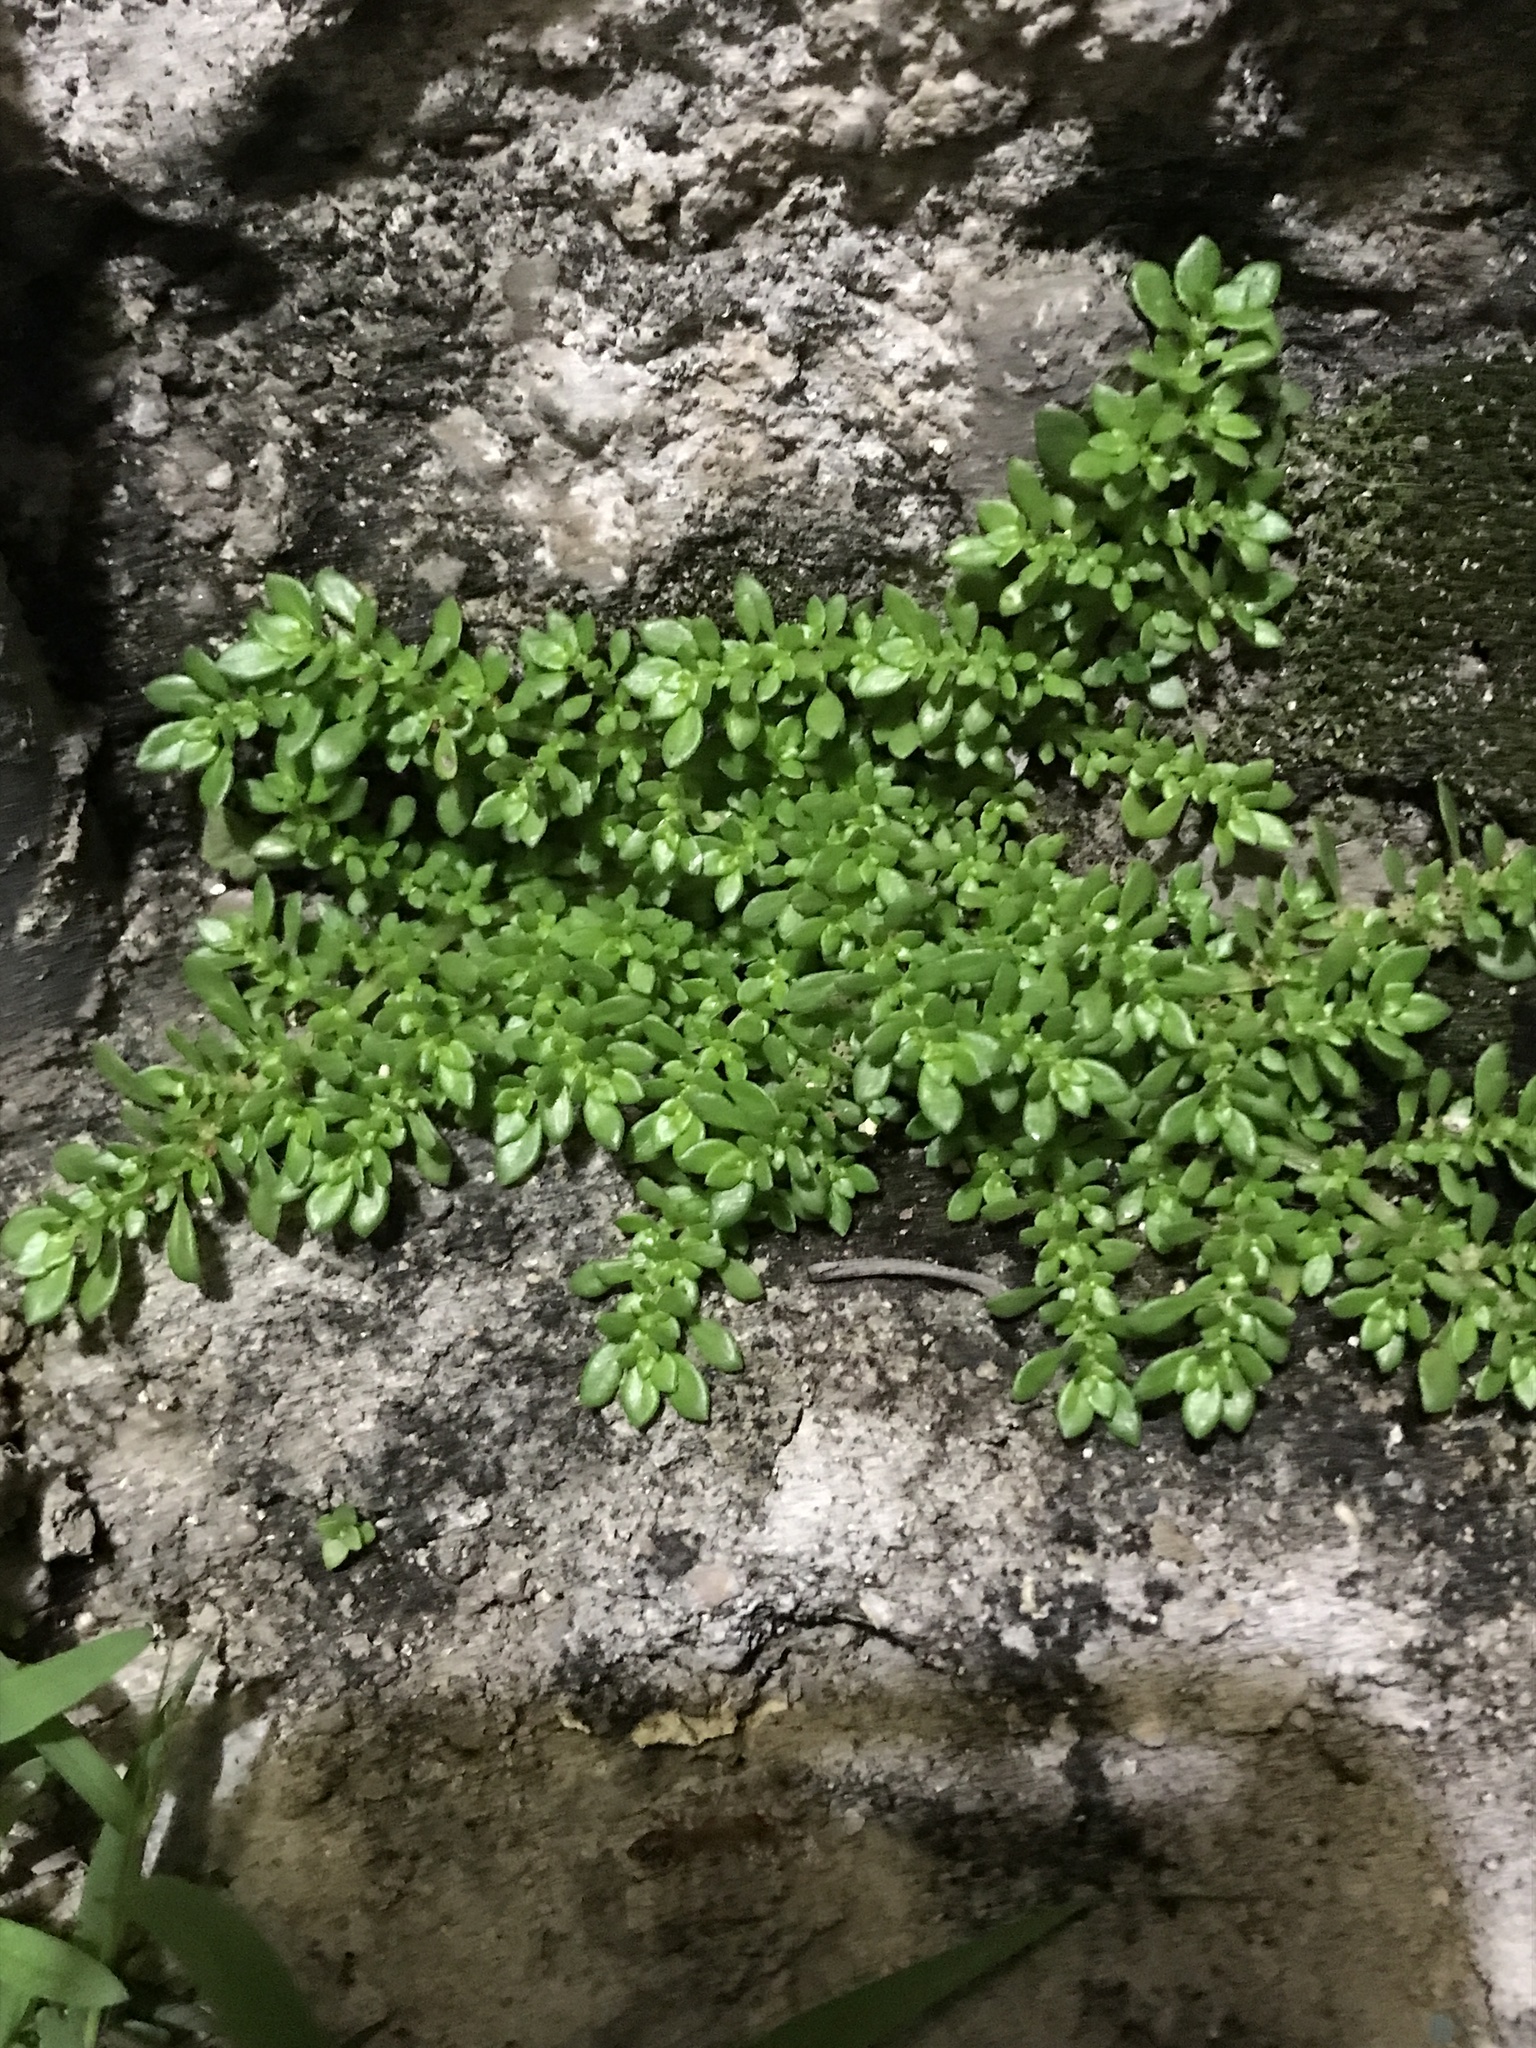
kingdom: Plantae
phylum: Tracheophyta
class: Magnoliopsida
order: Rosales
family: Urticaceae
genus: Pilea
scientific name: Pilea microphylla
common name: Artillery-plant
